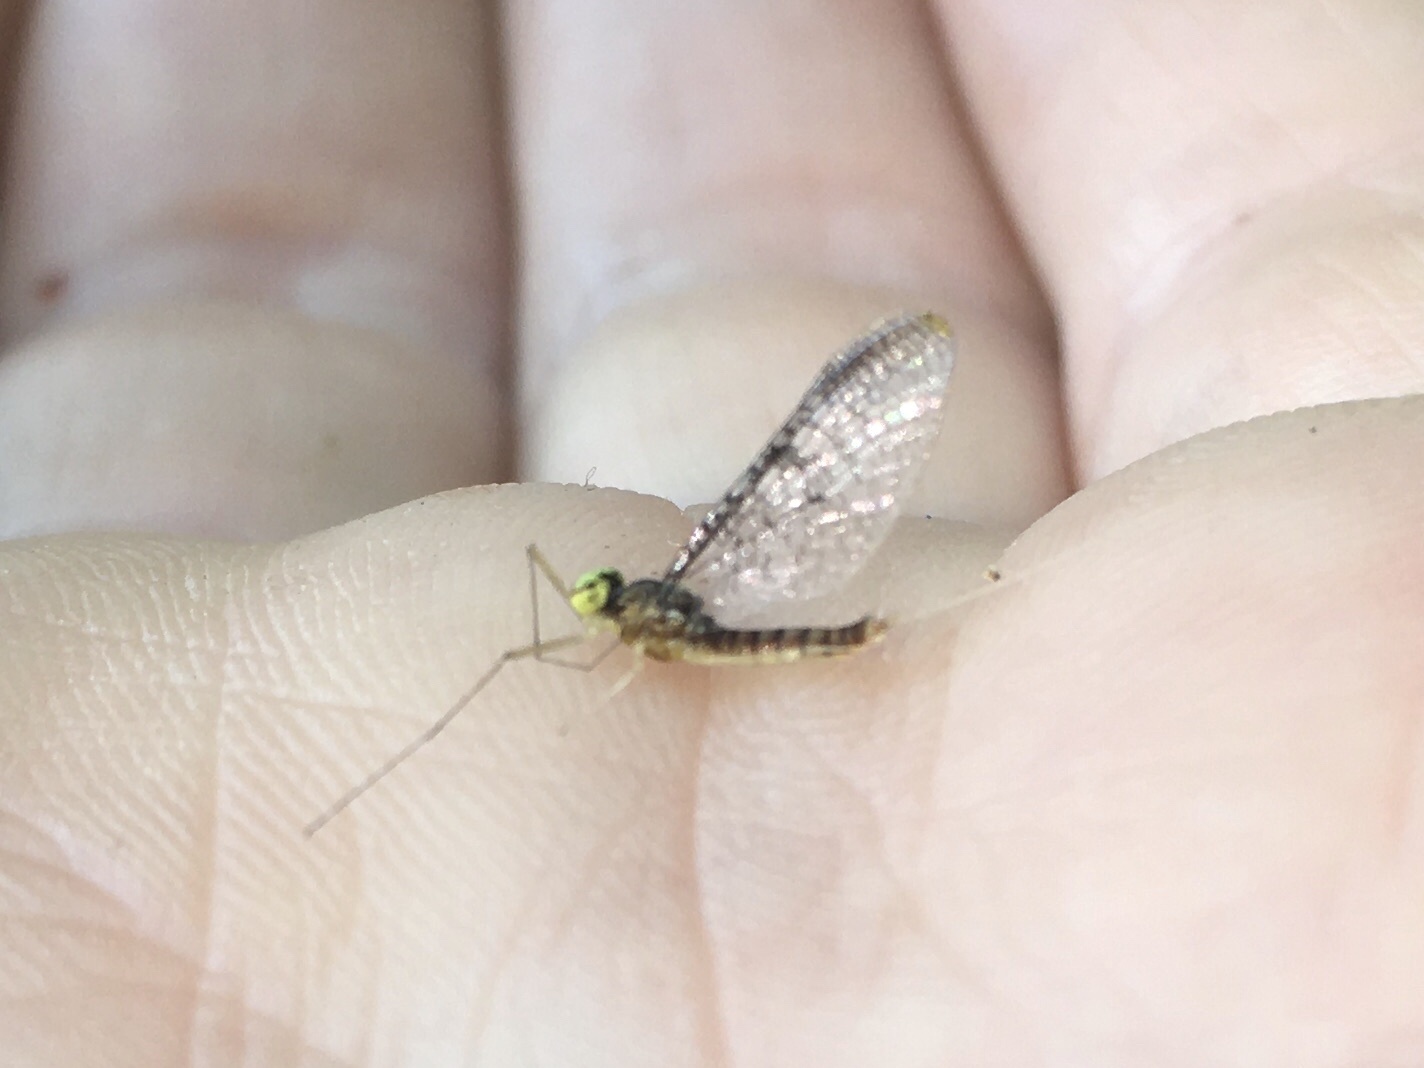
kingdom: Animalia
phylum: Arthropoda
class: Insecta
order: Ephemeroptera
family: Heptageniidae
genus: Leucrocuta
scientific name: Leucrocuta walshi
